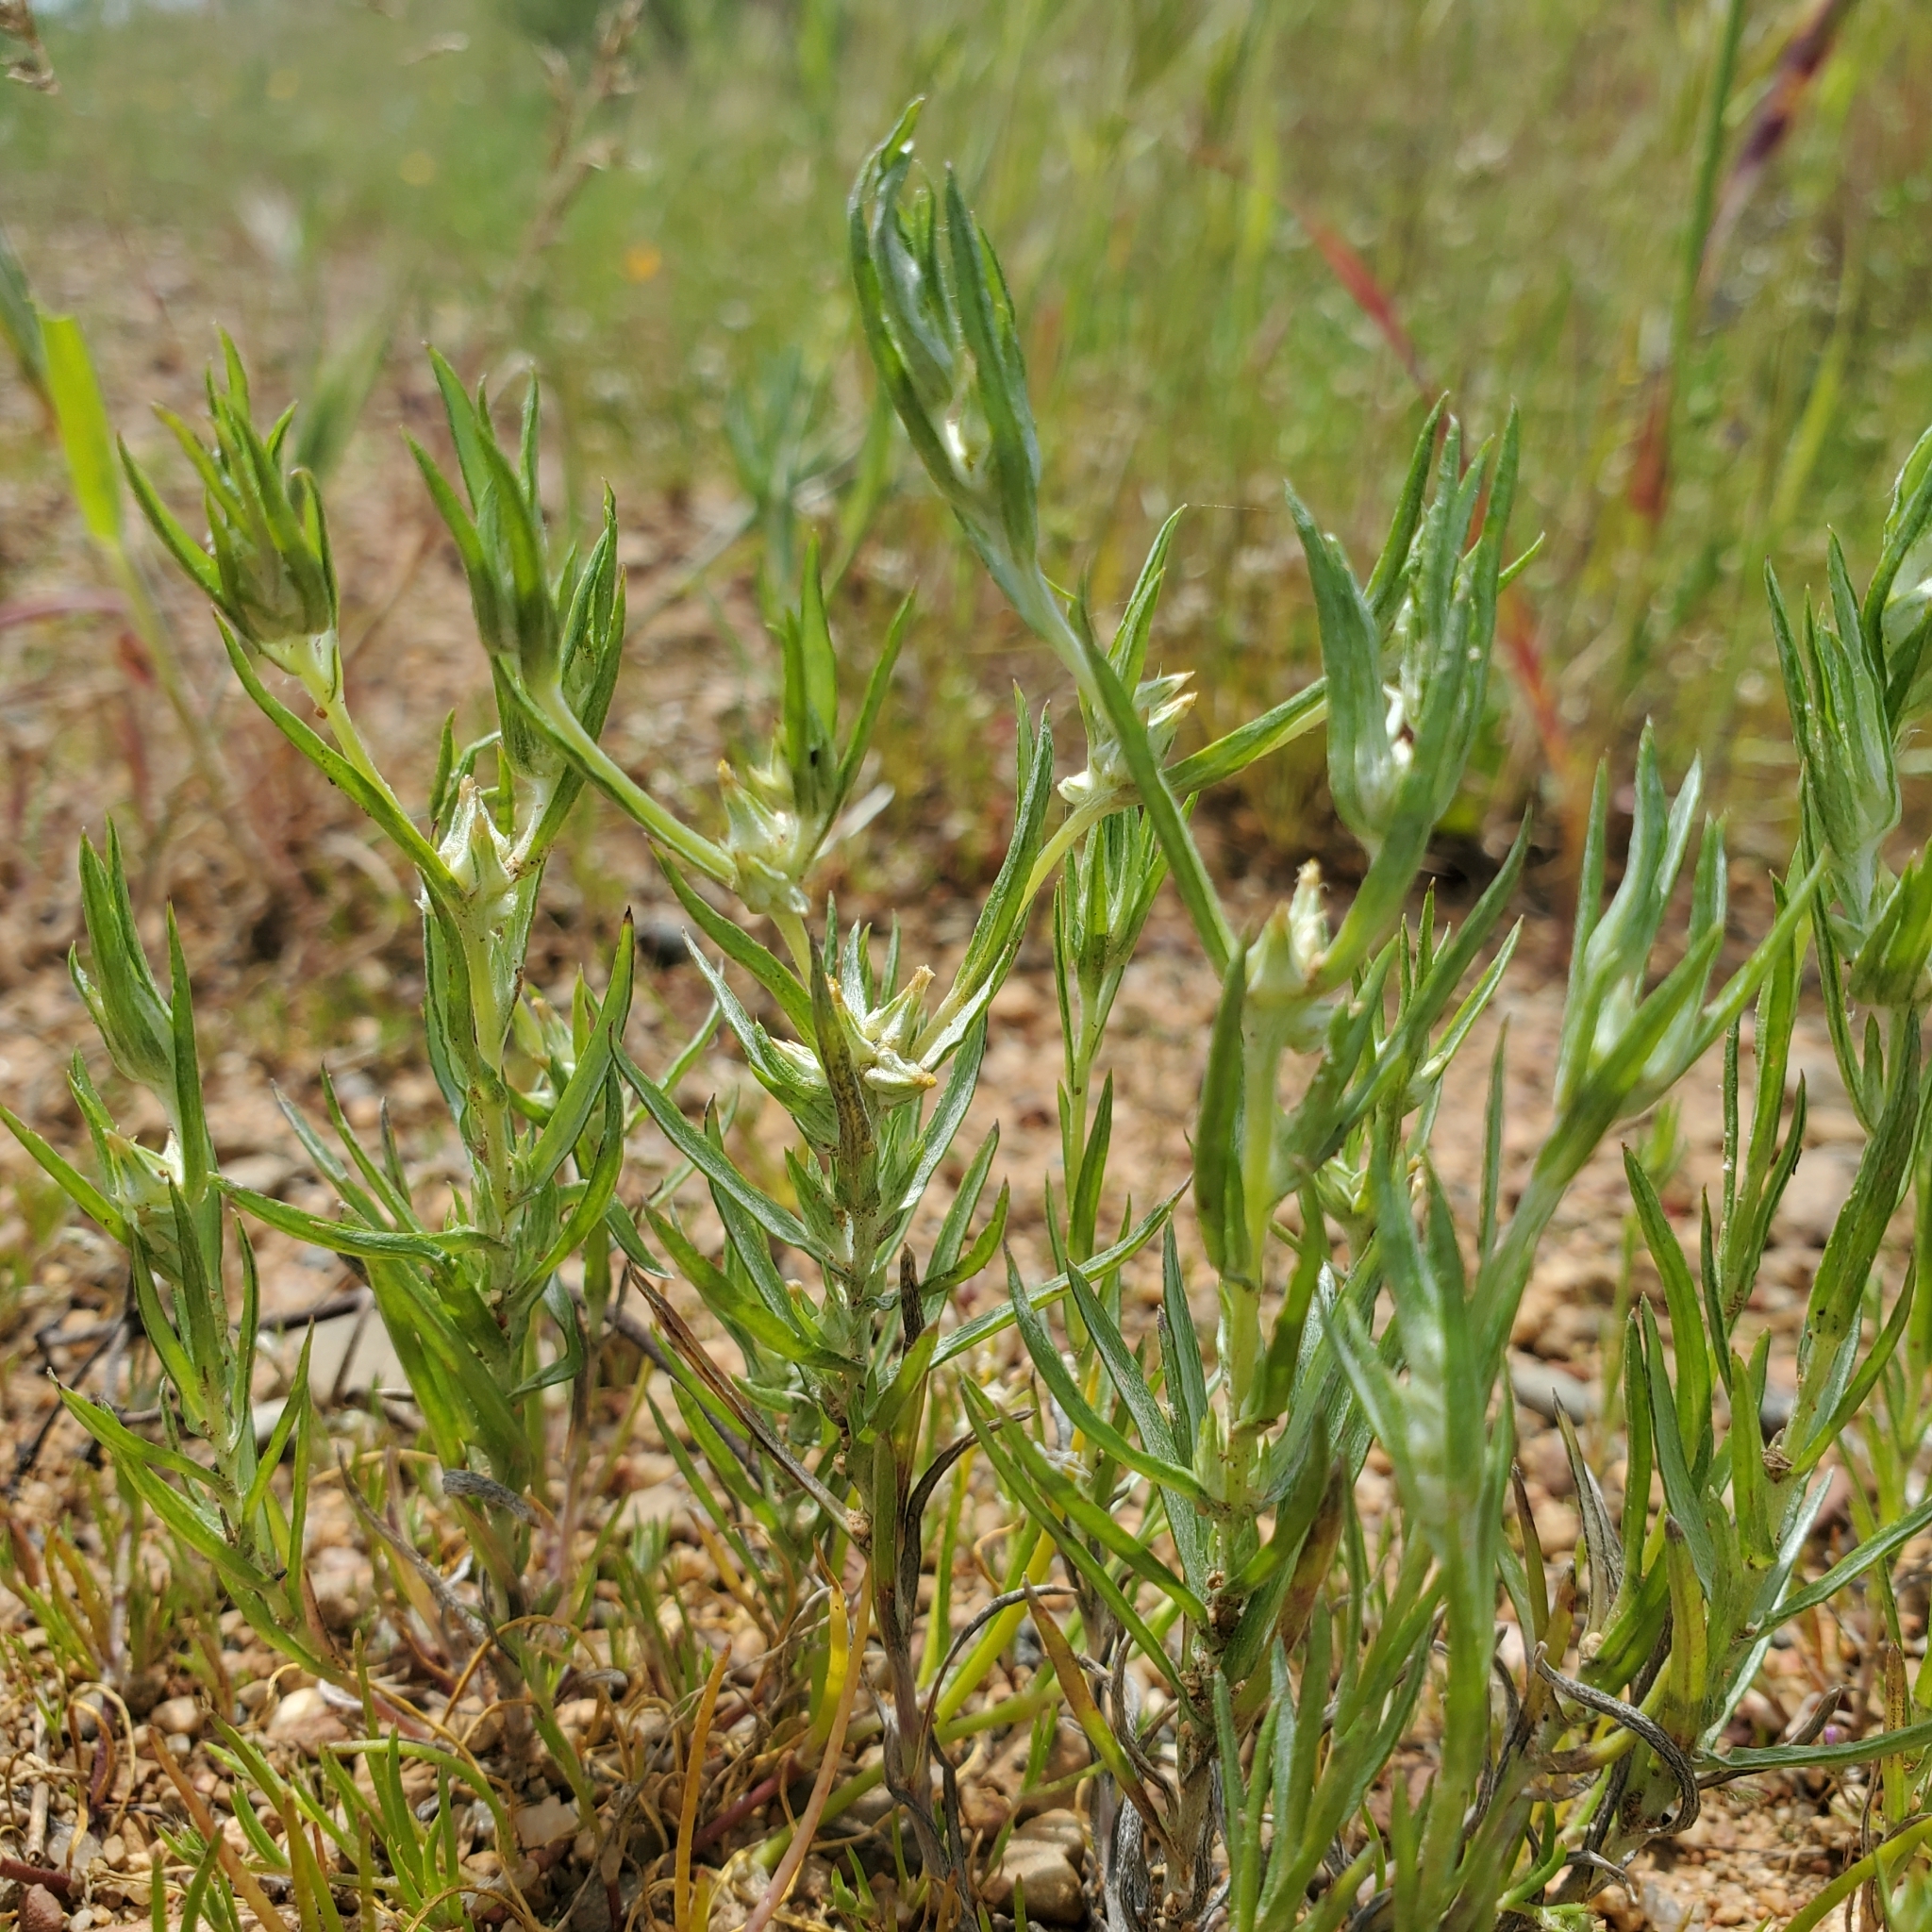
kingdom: Plantae
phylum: Tracheophyta
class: Magnoliopsida
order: Asterales
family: Asteraceae
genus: Logfia
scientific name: Logfia gallica
